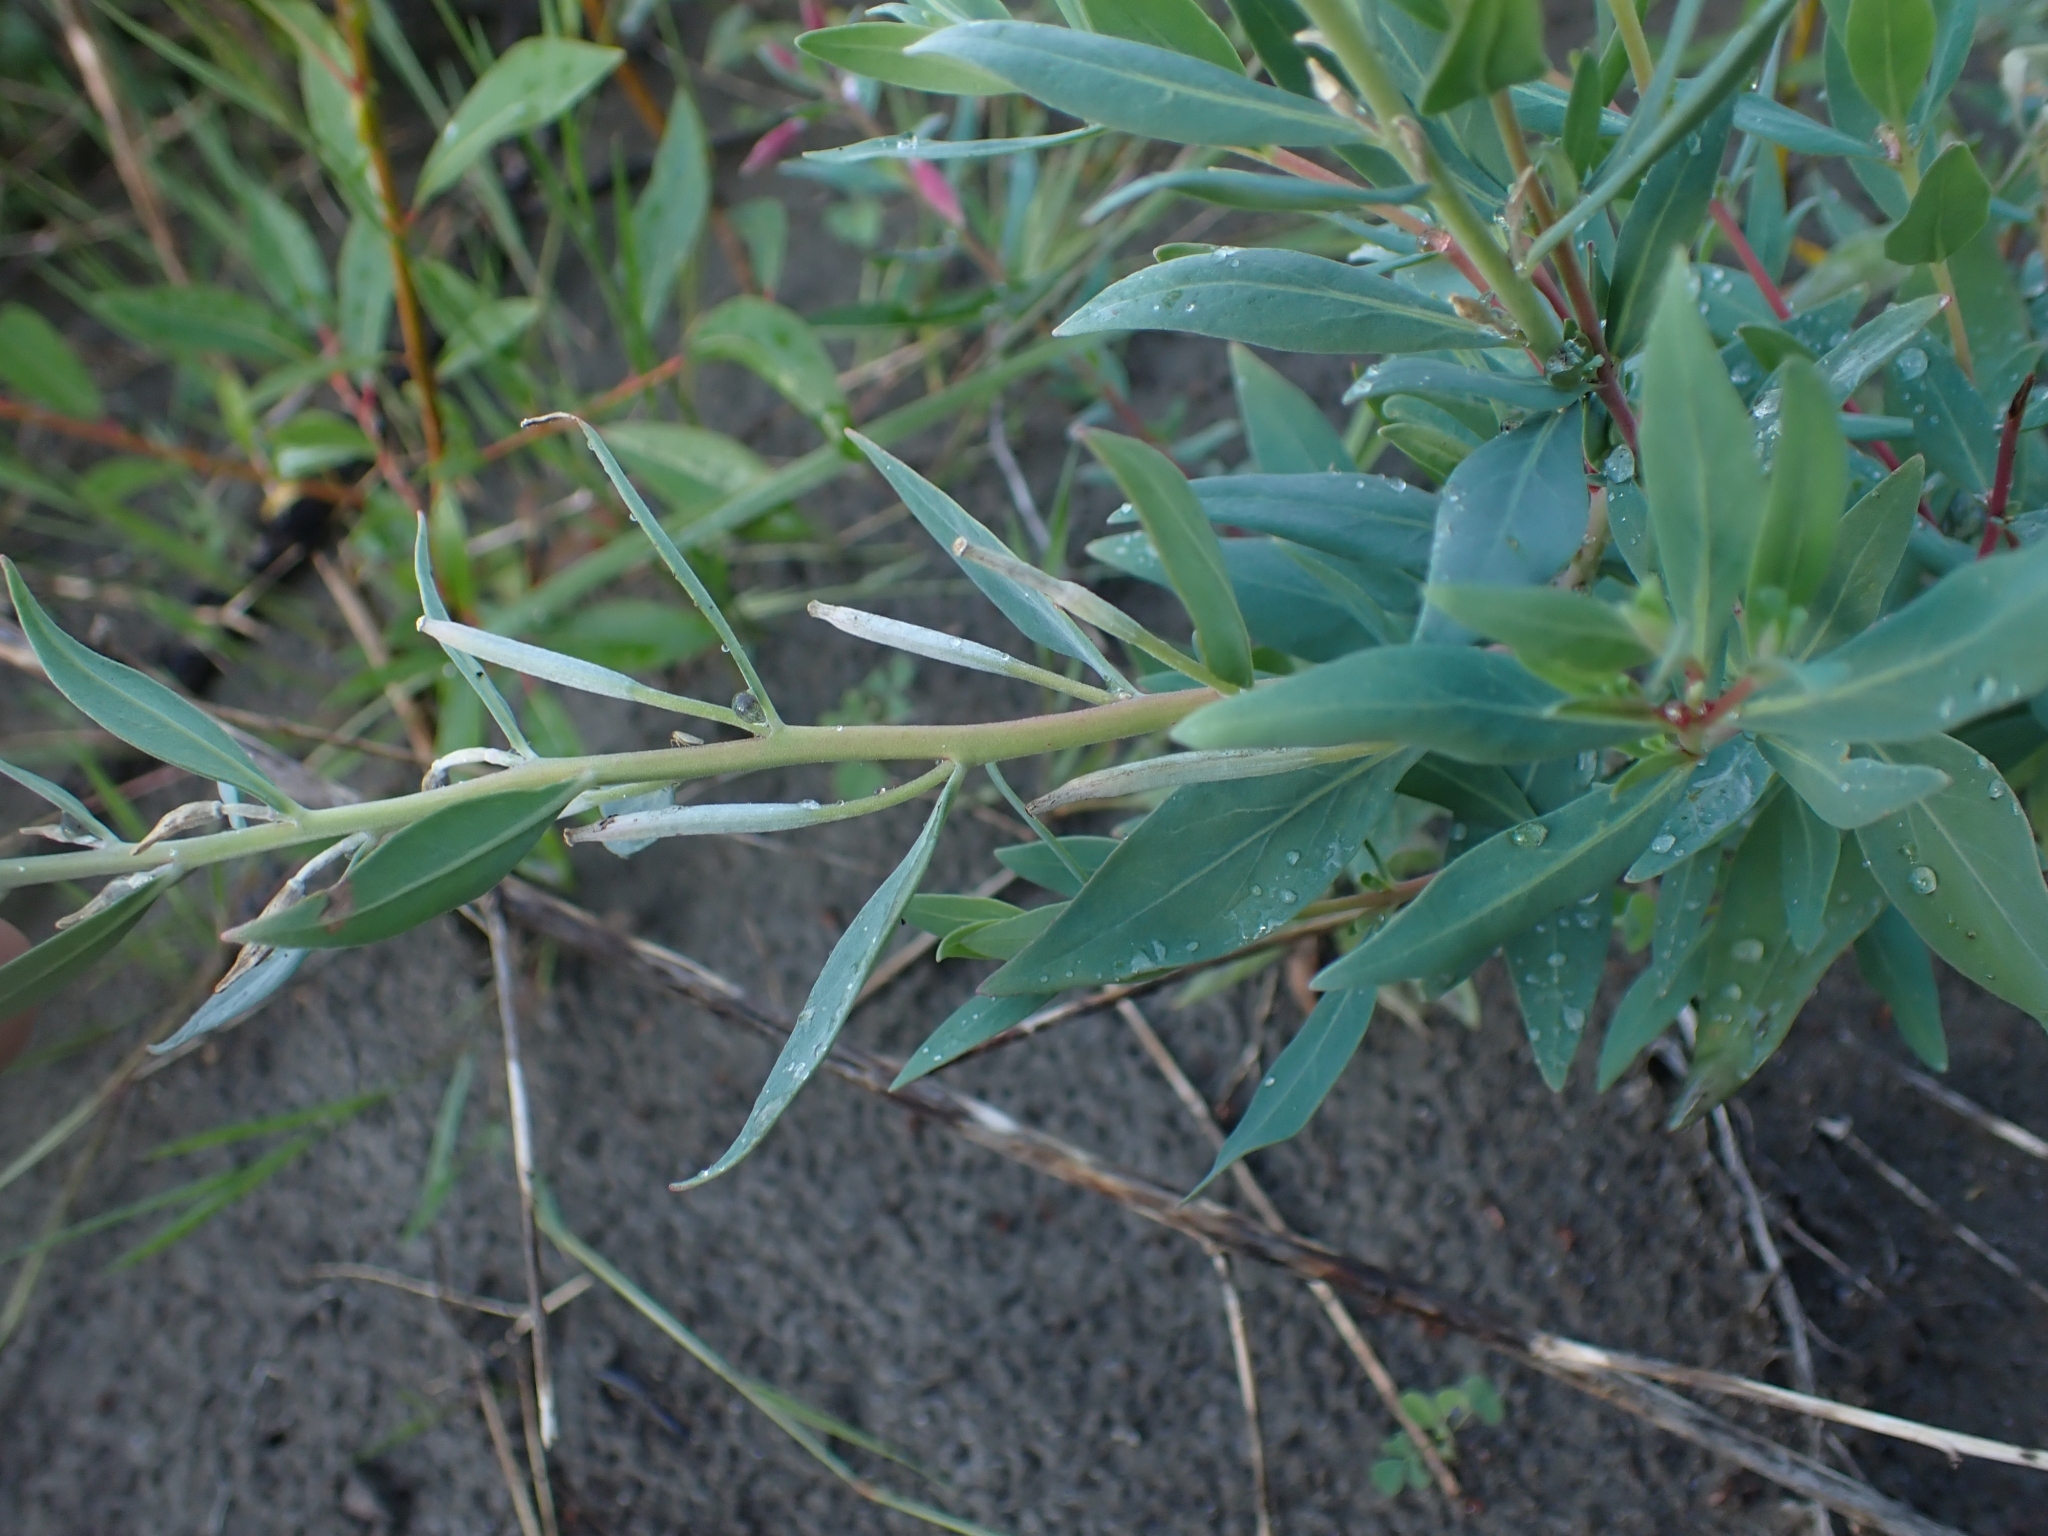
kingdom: Plantae
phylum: Tracheophyta
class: Magnoliopsida
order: Myrtales
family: Onagraceae
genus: Chamaenerion
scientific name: Chamaenerion latifolium
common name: Dwarf fireweed
